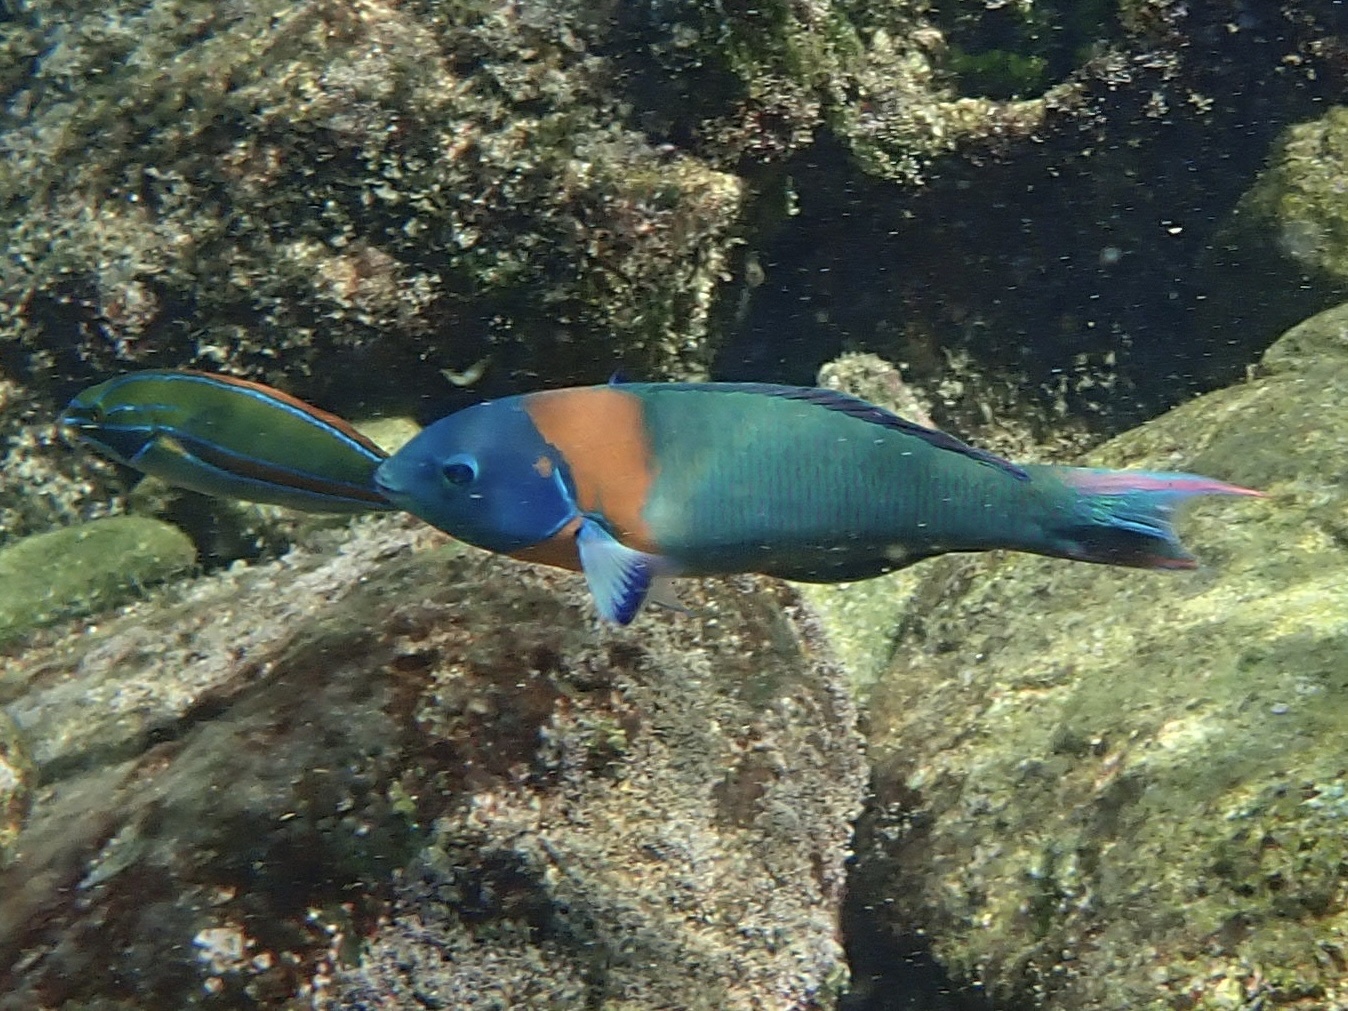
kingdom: Animalia
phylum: Chordata
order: Perciformes
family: Labridae
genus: Thalassoma
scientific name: Thalassoma duperrey
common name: Saddle wrasse
